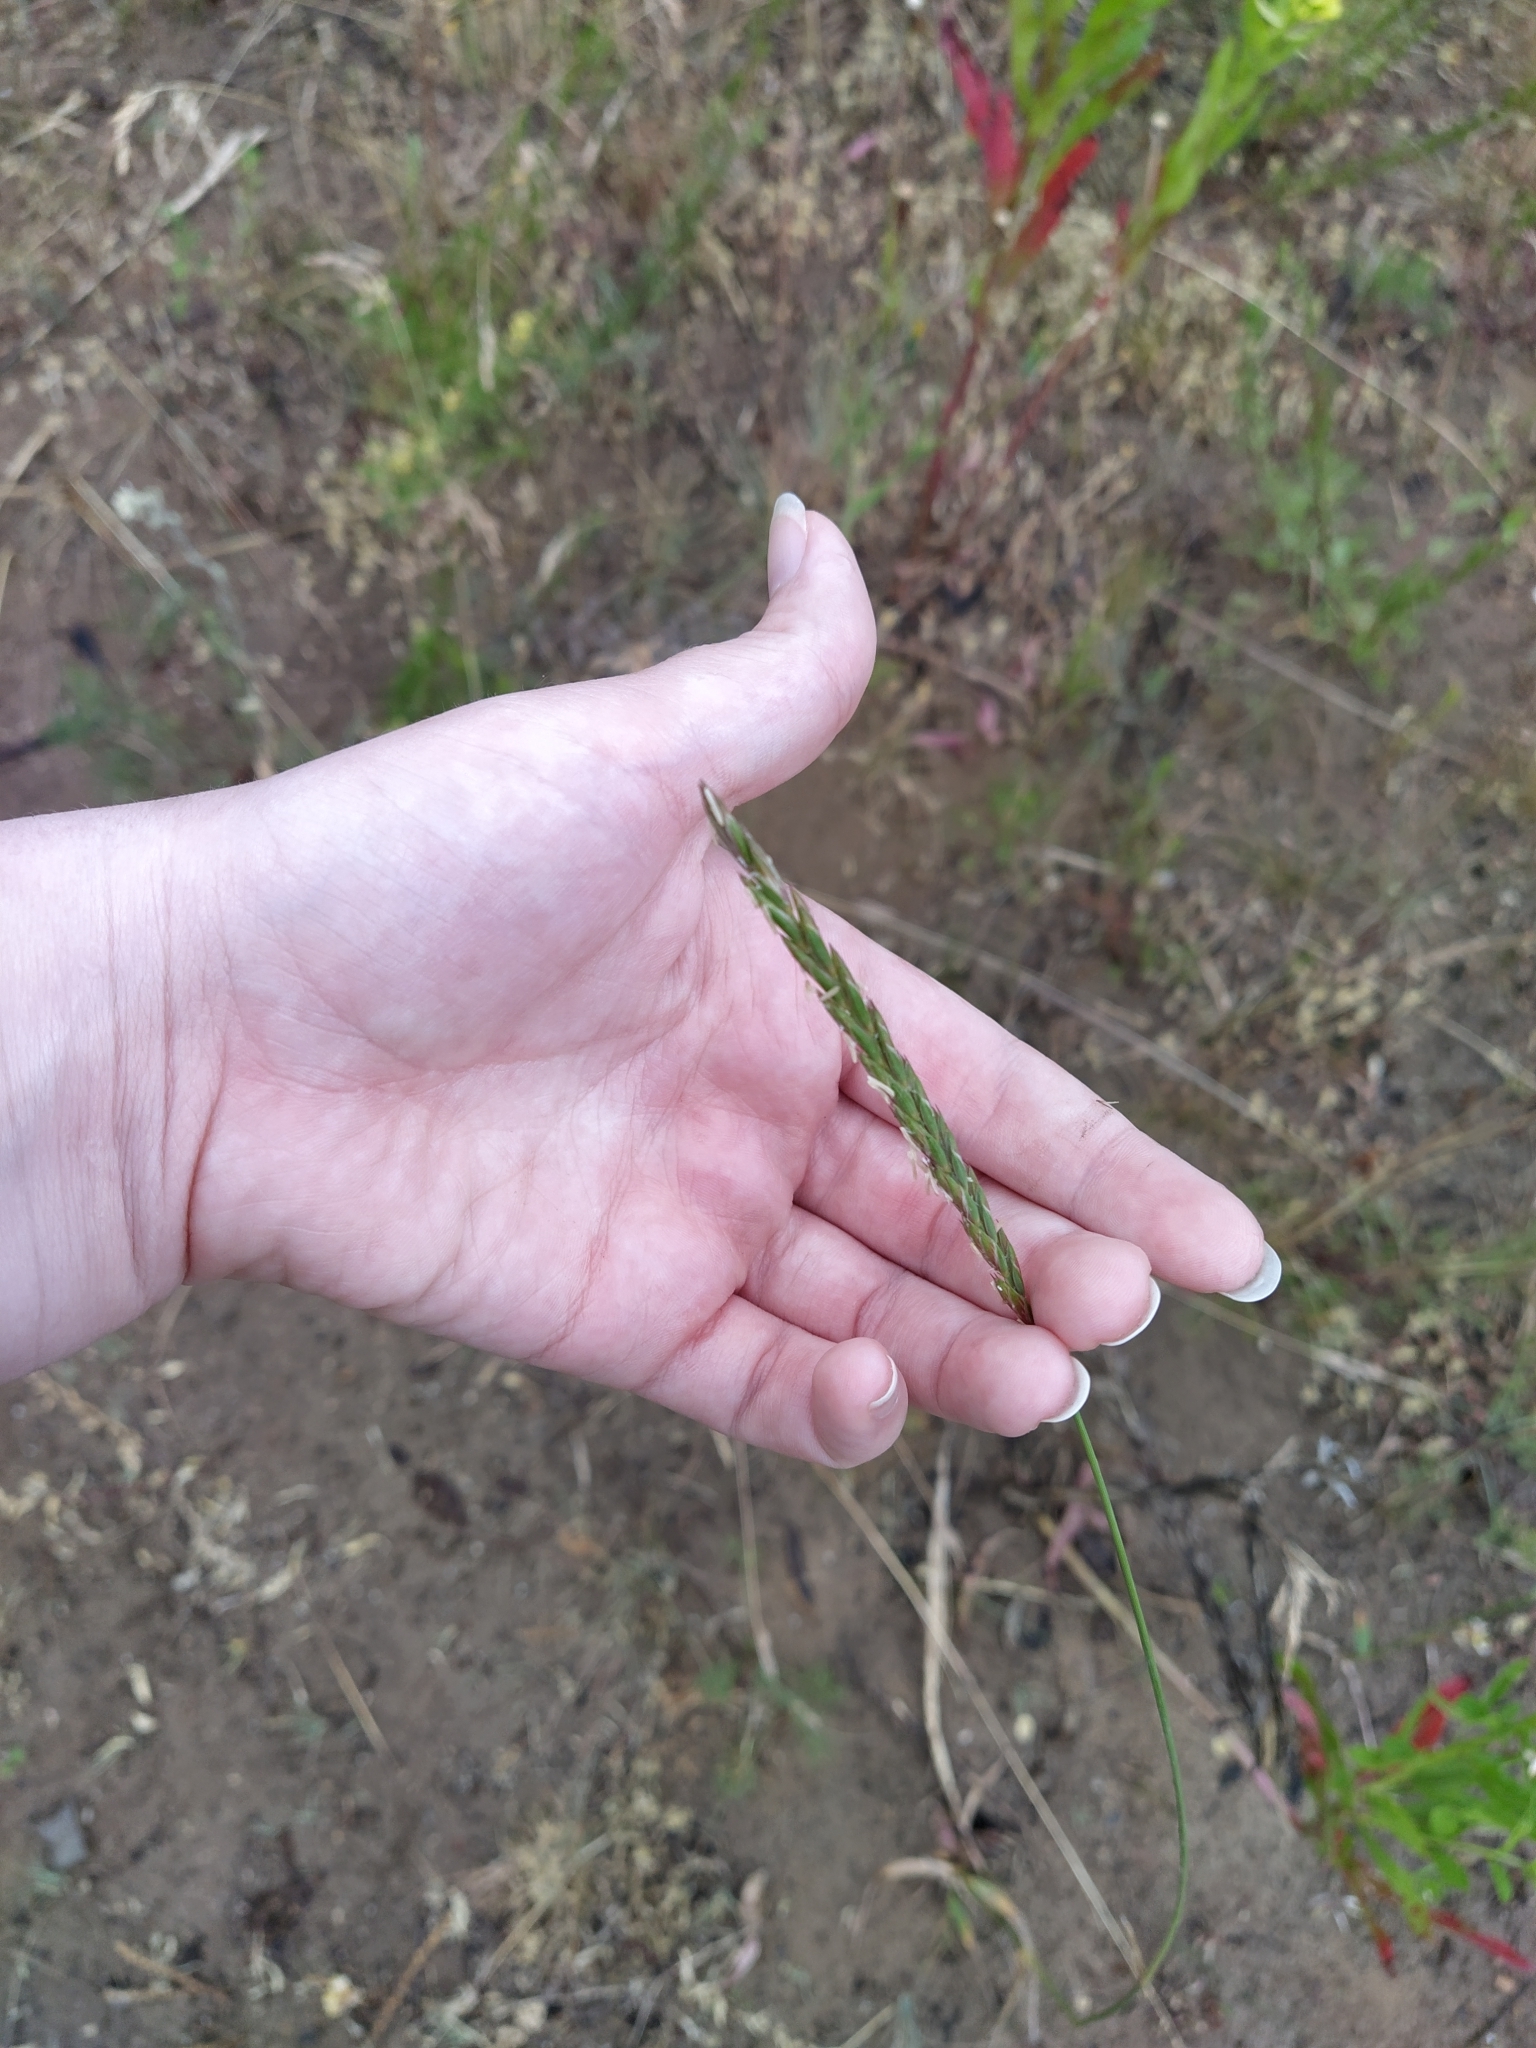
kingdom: Plantae
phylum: Tracheophyta
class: Liliopsida
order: Poales
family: Poaceae
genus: Elymus
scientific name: Elymus repens
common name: Quackgrass
